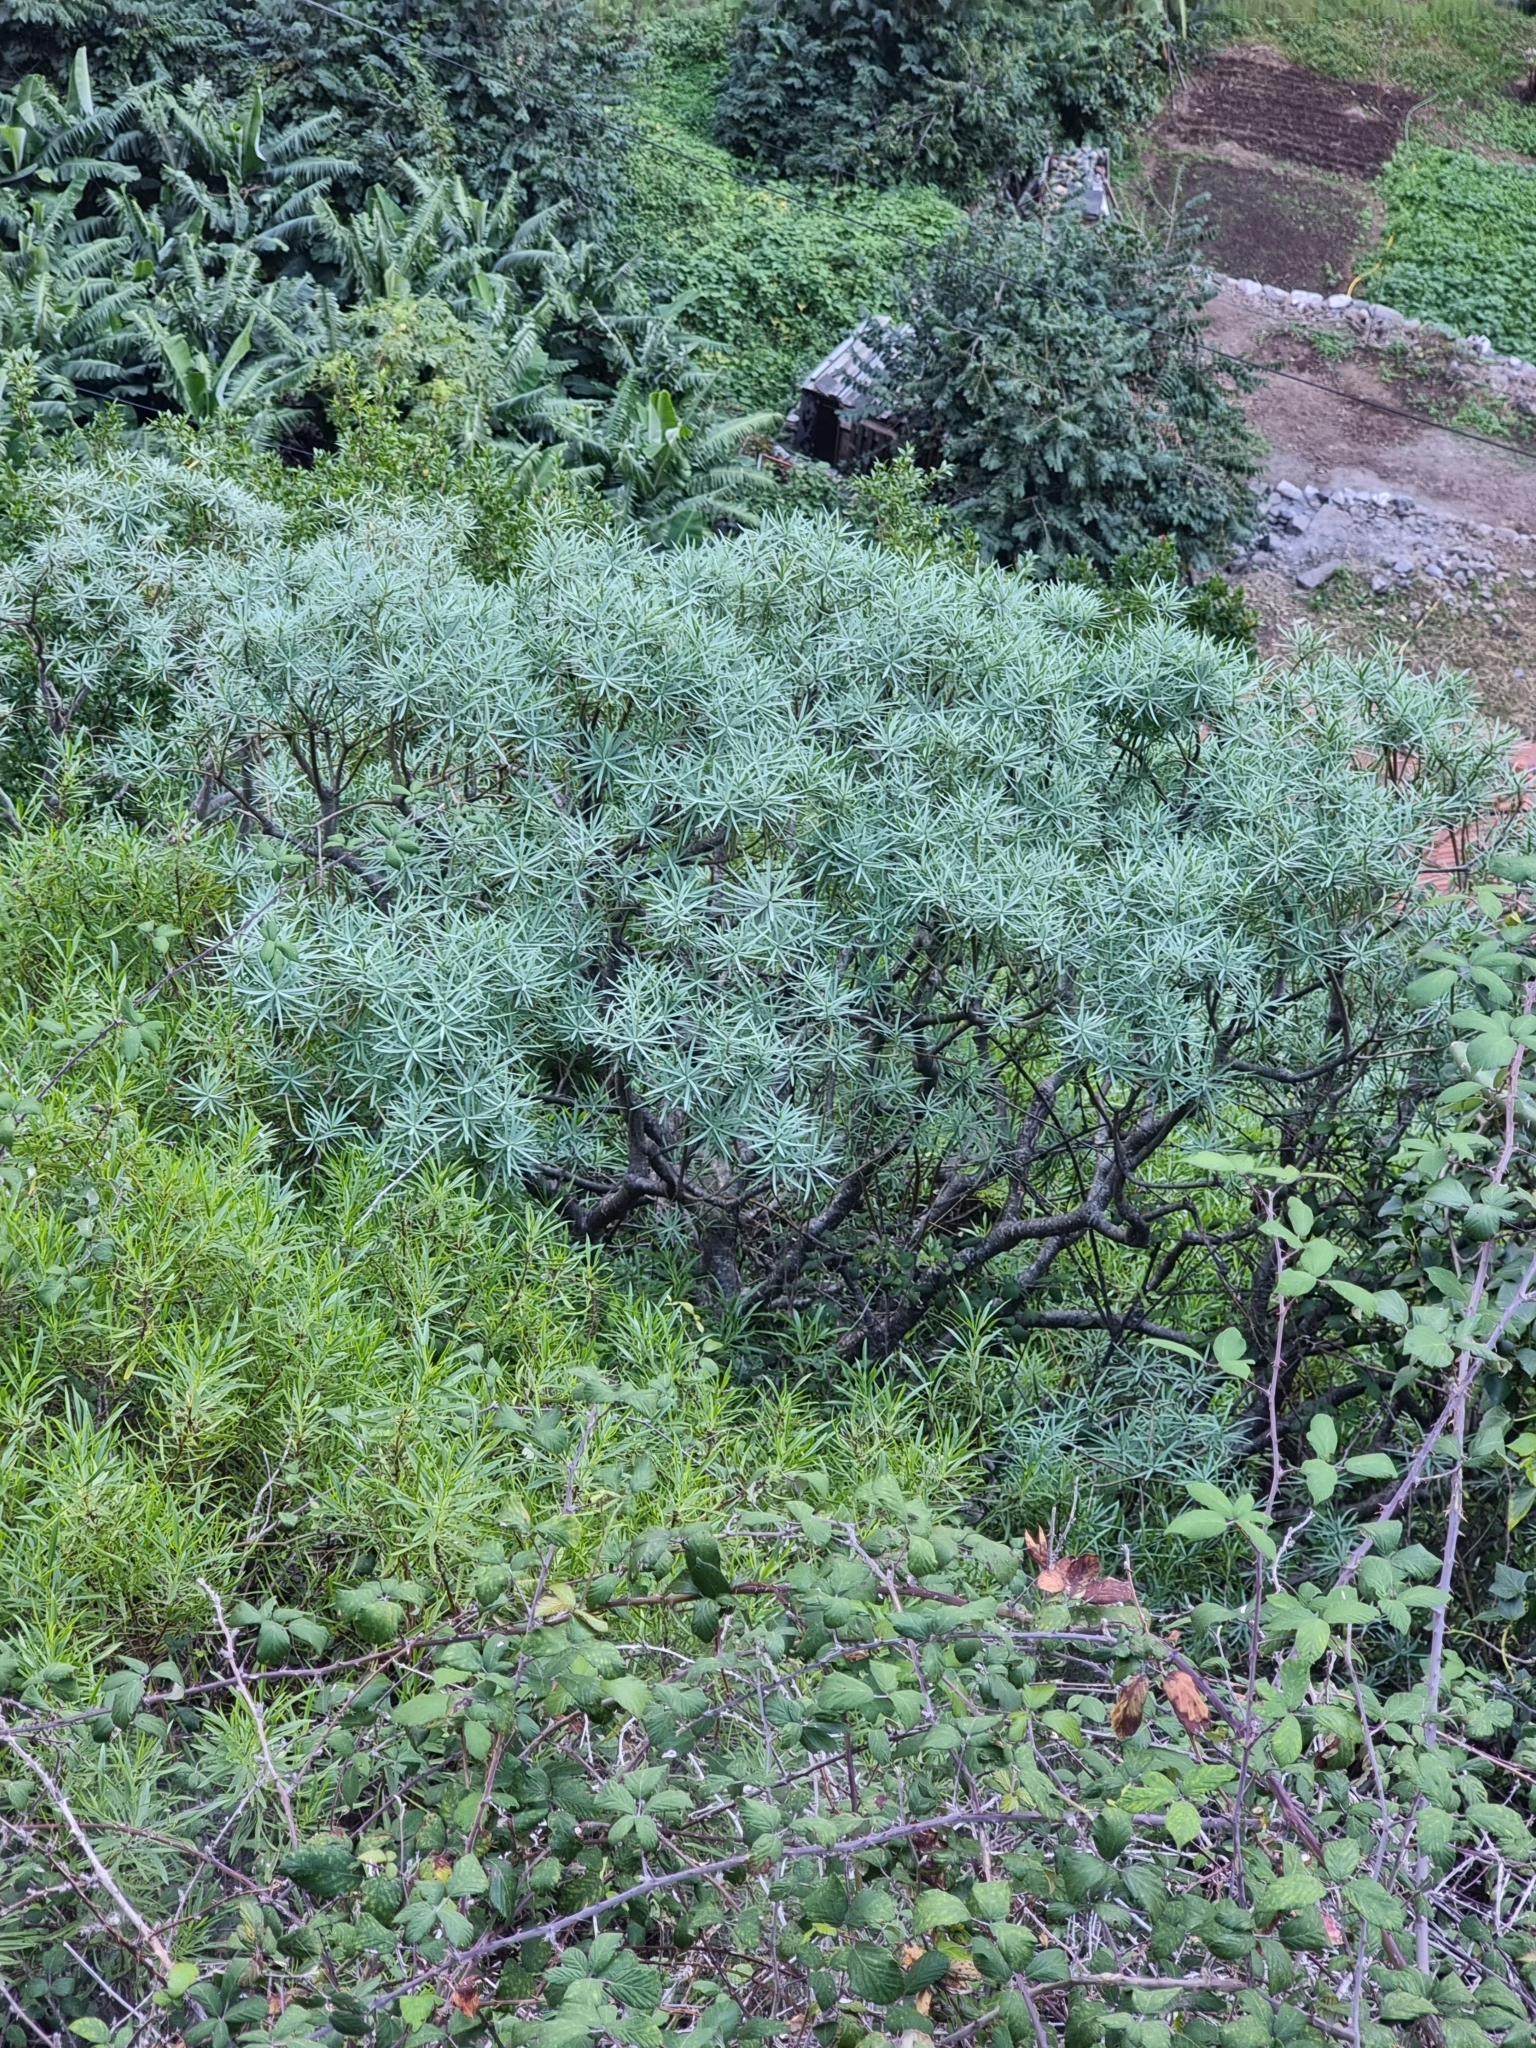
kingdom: Plantae
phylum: Tracheophyta
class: Magnoliopsida
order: Malpighiales
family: Euphorbiaceae
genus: Euphorbia
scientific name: Euphorbia piscatoria
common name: Fish-stunning spurge
